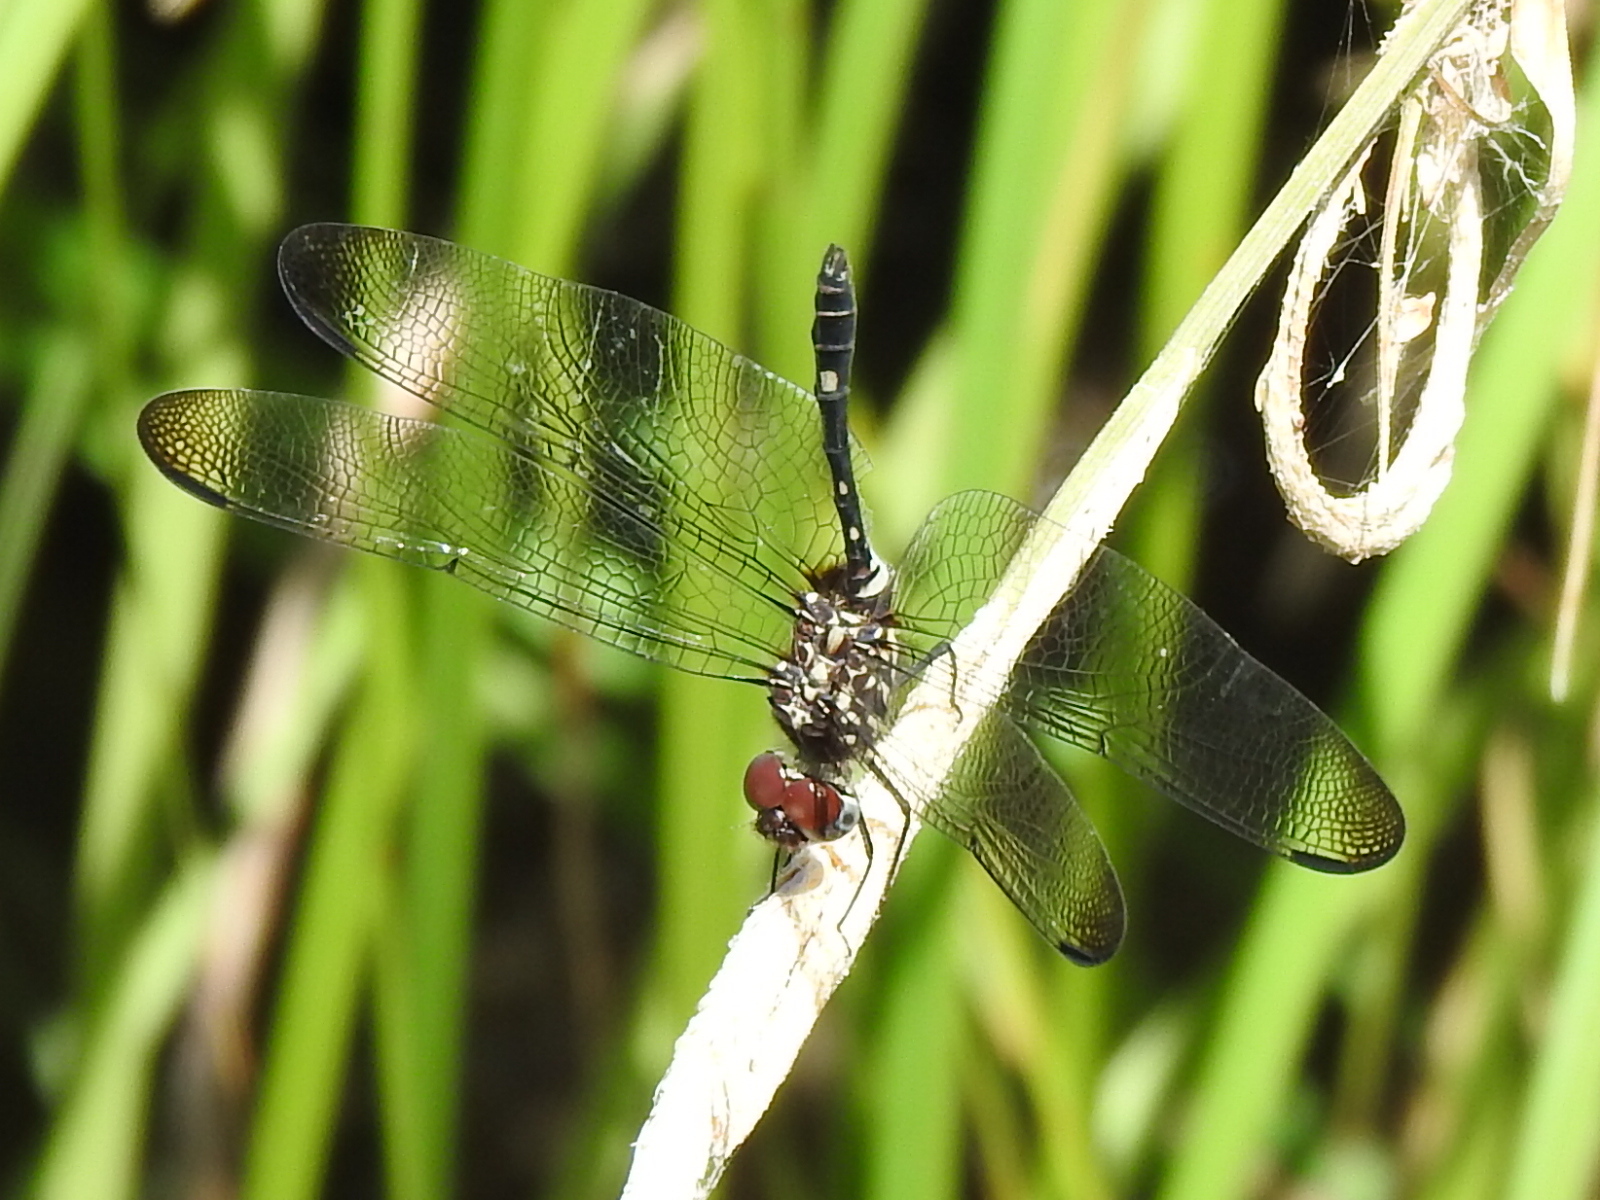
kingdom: Animalia
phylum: Arthropoda
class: Insecta
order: Odonata
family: Libellulidae
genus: Dythemis
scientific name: Dythemis velox
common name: Swift setwing
